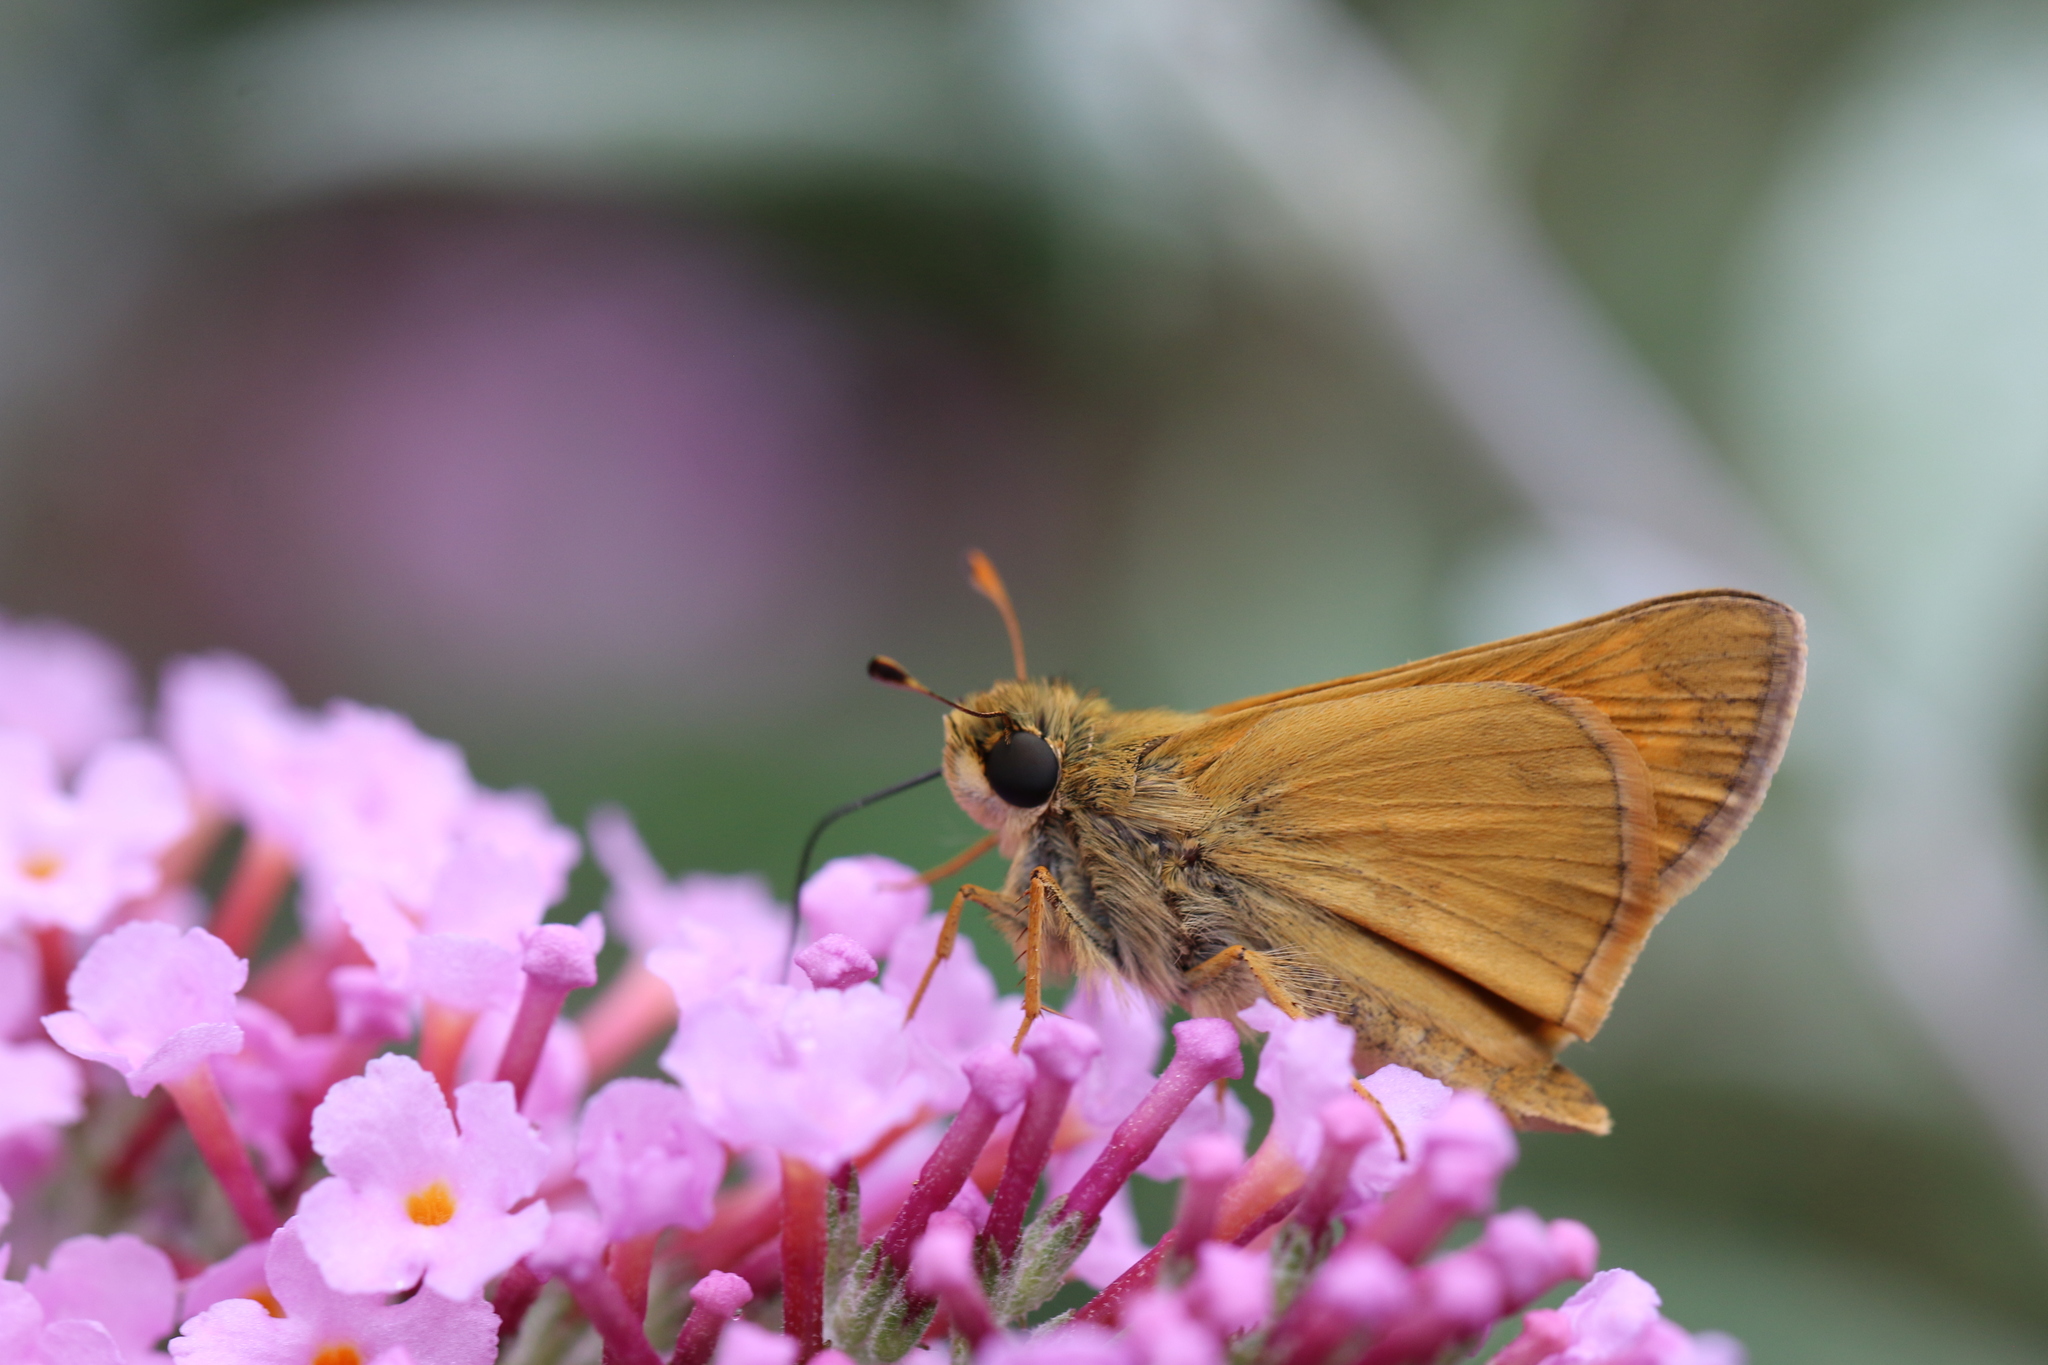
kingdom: Animalia
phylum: Arthropoda
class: Insecta
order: Lepidoptera
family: Hesperiidae
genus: Atalopedes
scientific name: Atalopedes
